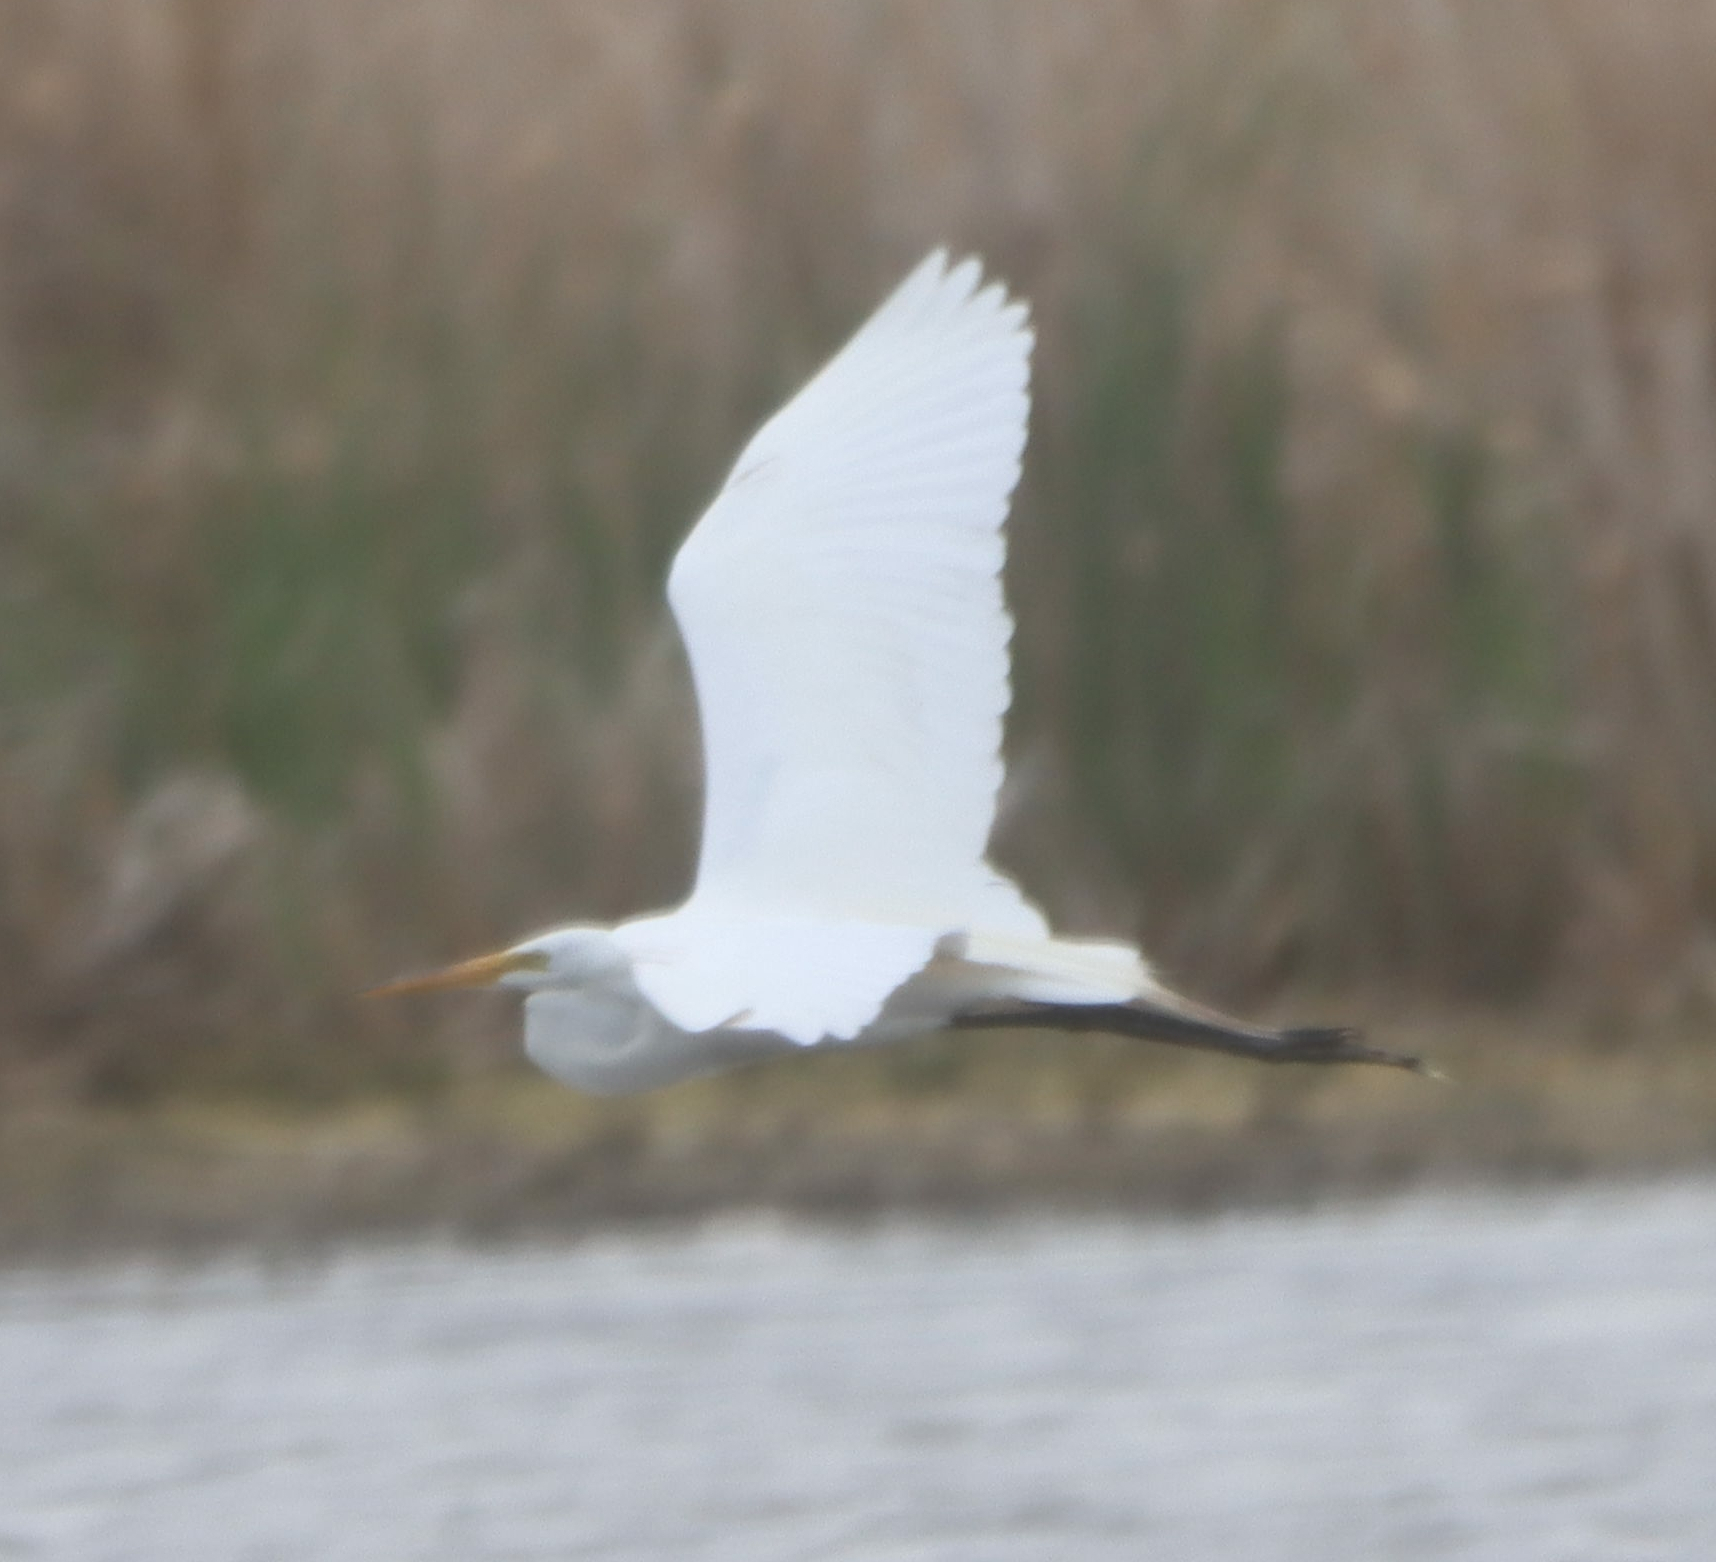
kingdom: Animalia
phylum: Chordata
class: Aves
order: Pelecaniformes
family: Ardeidae
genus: Ardea
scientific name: Ardea alba
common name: Great egret
